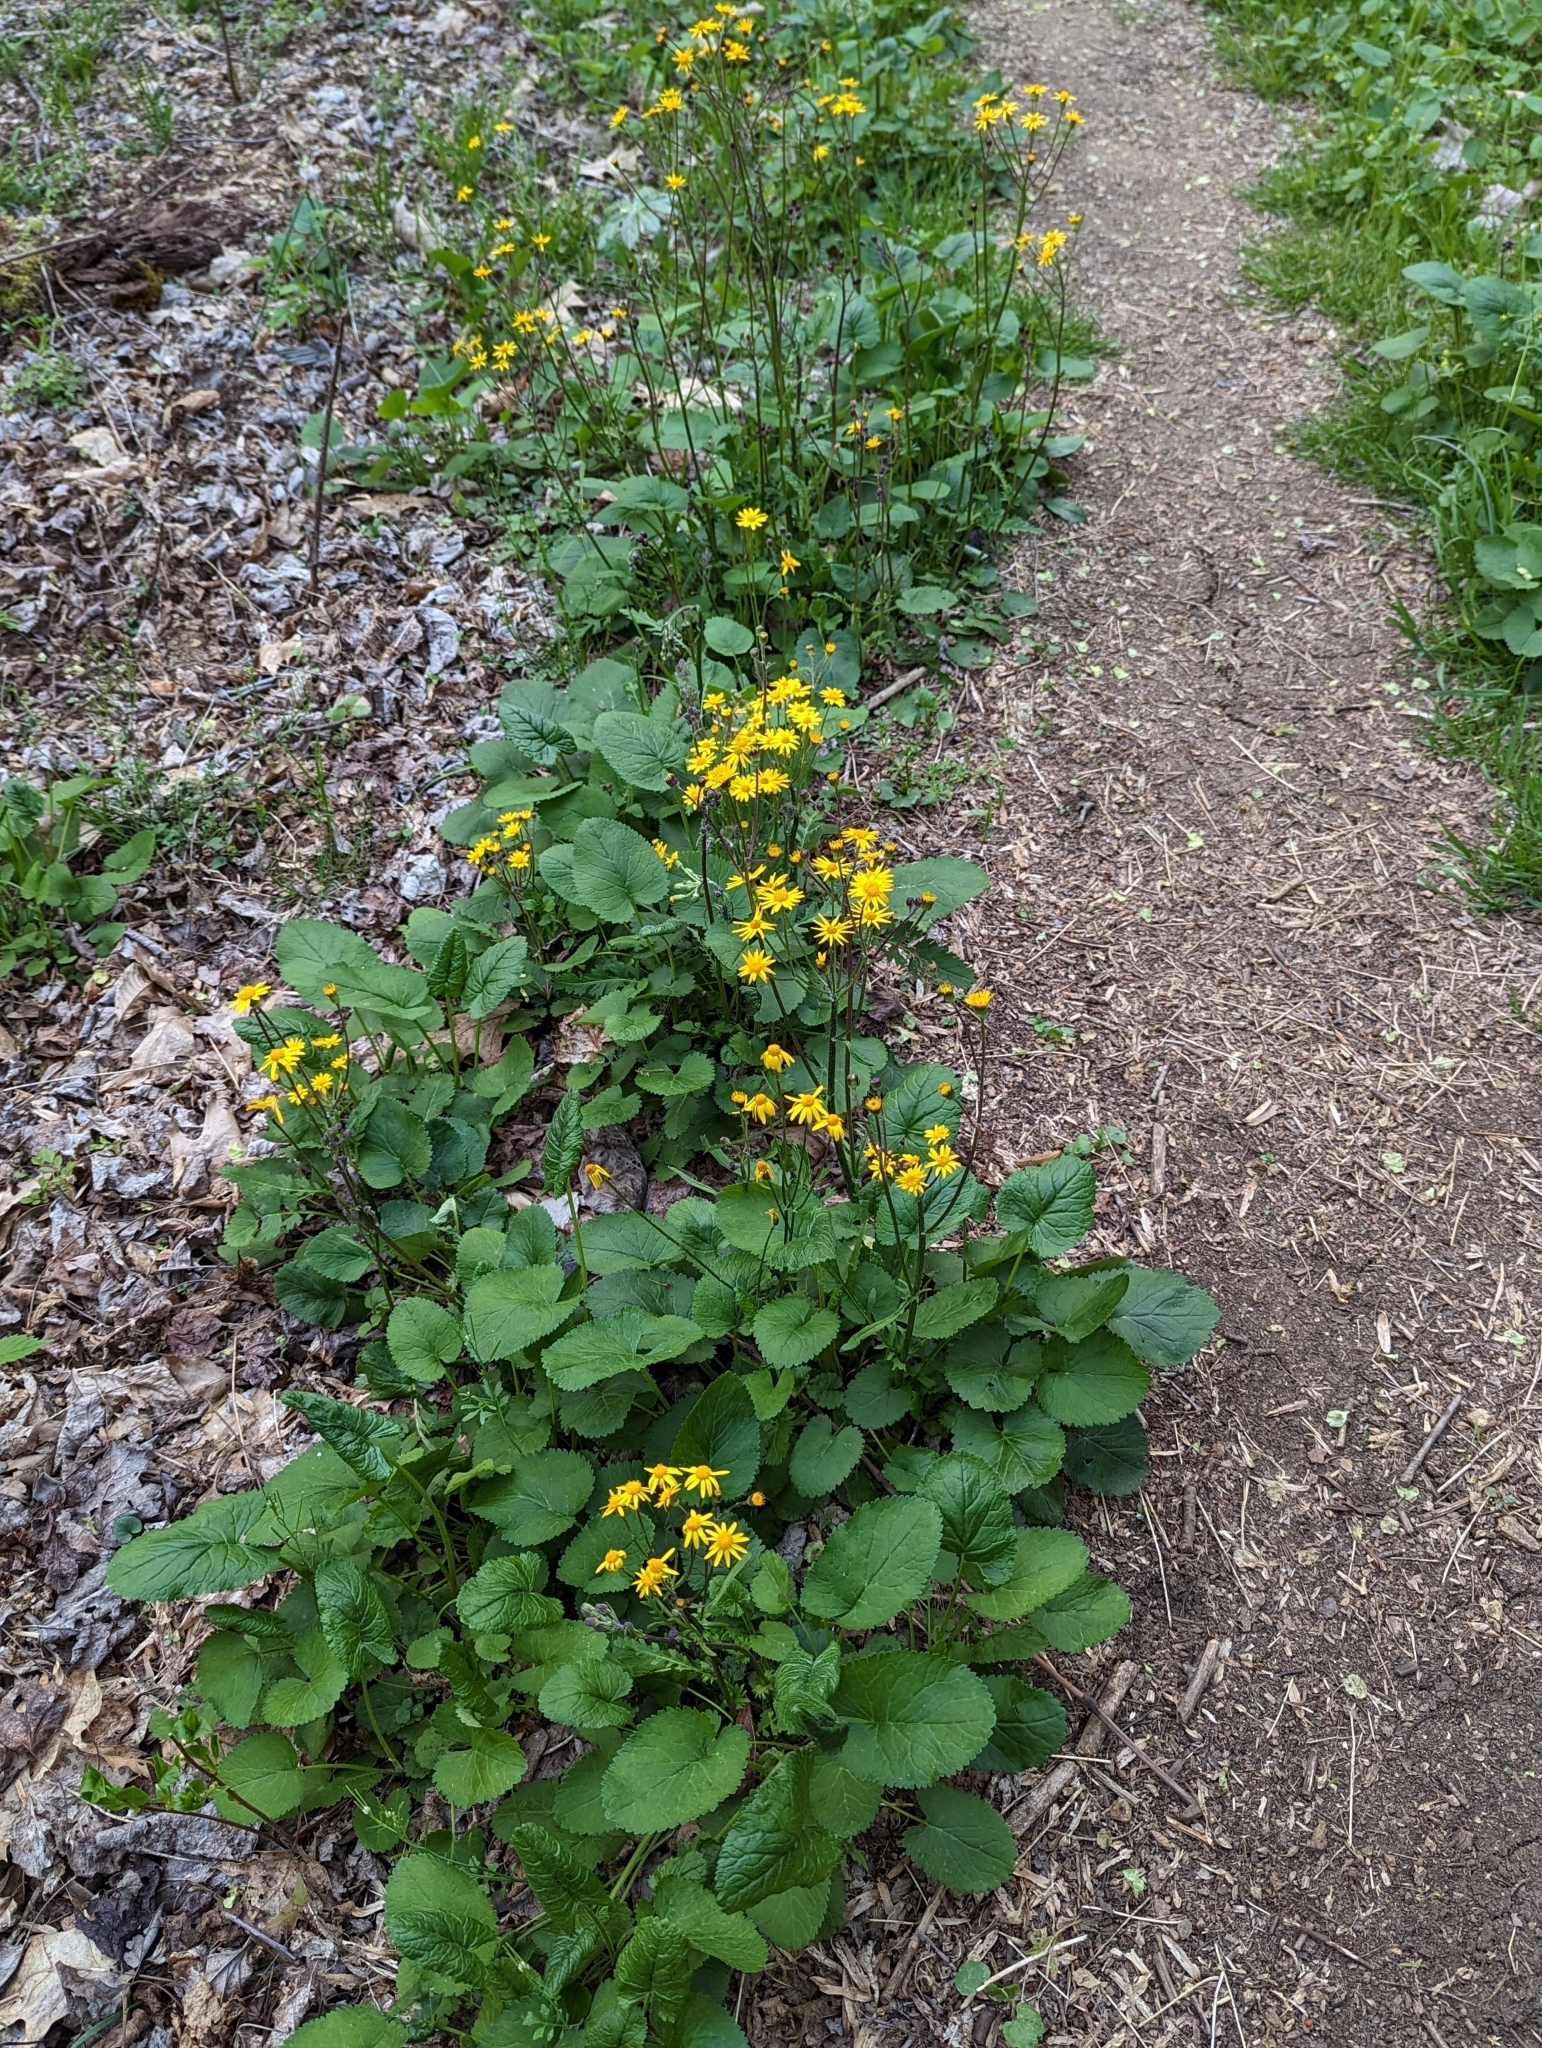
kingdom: Plantae
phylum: Tracheophyta
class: Magnoliopsida
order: Asterales
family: Asteraceae
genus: Packera
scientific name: Packera aurea
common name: Golden groundsel
